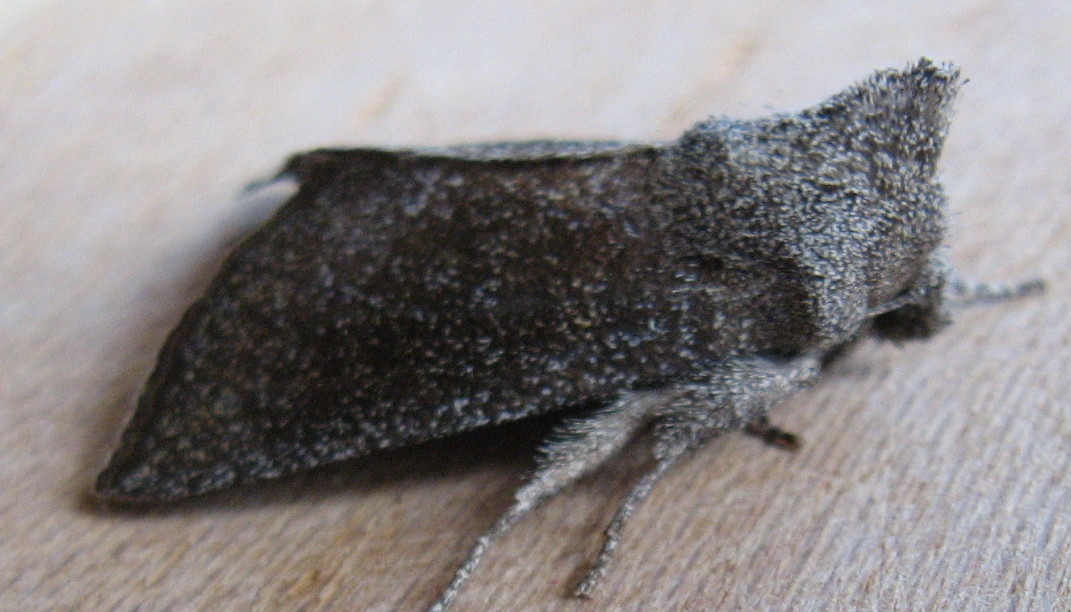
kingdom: Animalia
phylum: Arthropoda
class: Insecta
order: Lepidoptera
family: Noctuidae
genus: Papaipema
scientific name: Papaipema maritima
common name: Maritime sunflower borer moth
